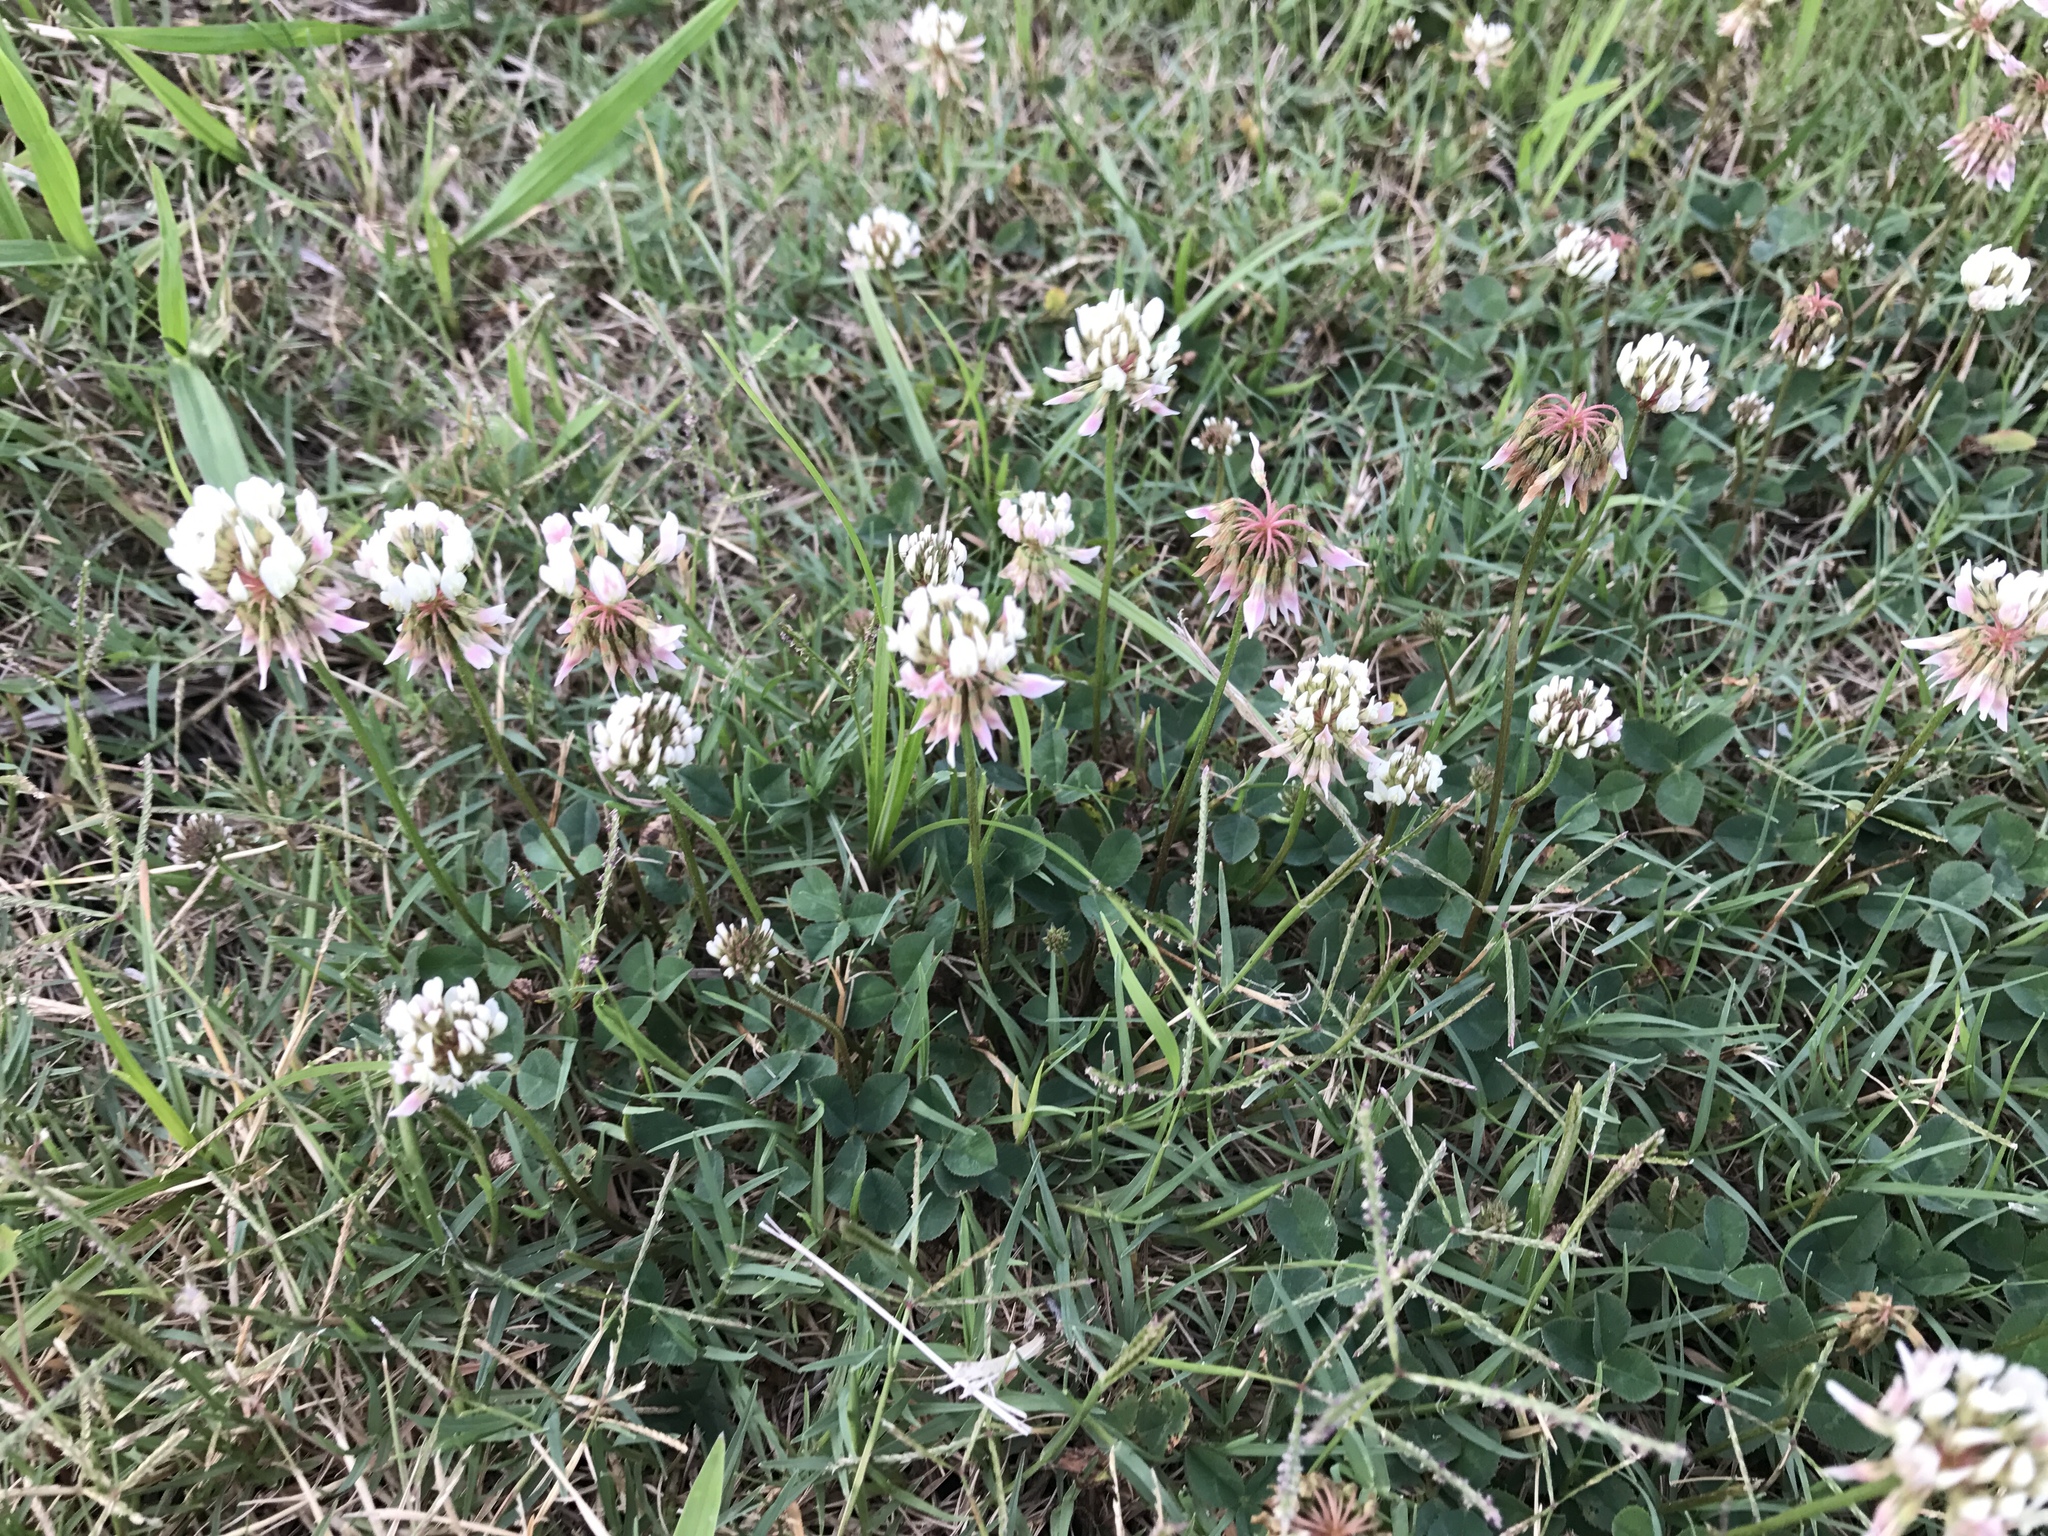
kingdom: Plantae
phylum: Tracheophyta
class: Magnoliopsida
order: Fabales
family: Fabaceae
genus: Trifolium
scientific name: Trifolium repens
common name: White clover
